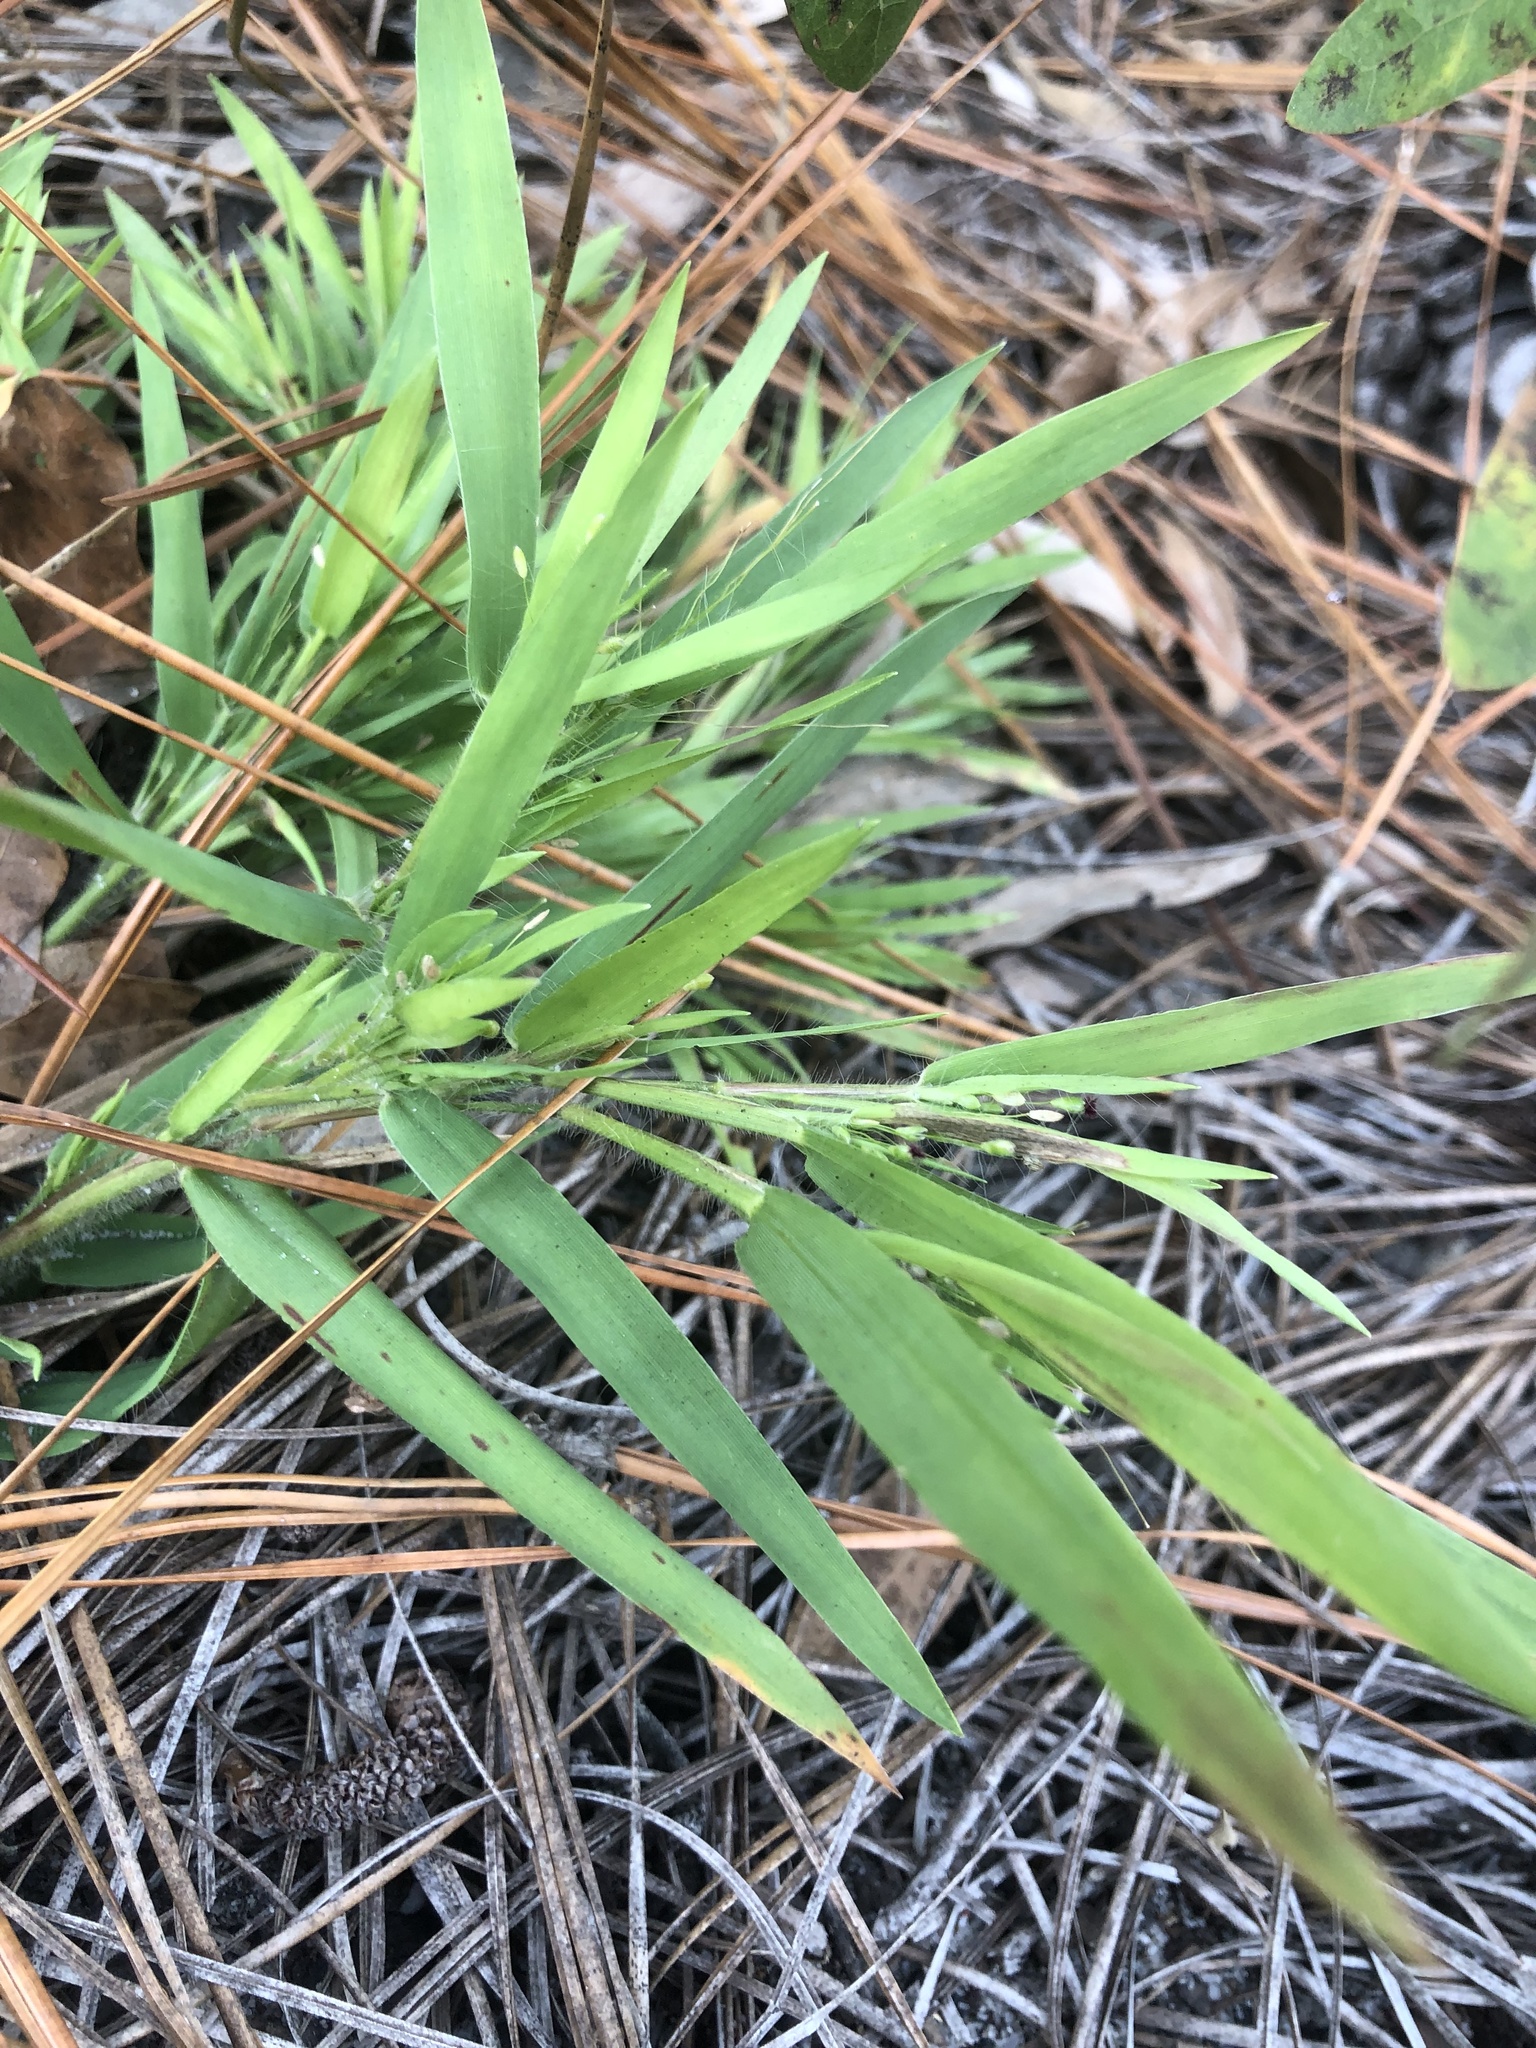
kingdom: Plantae
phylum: Tracheophyta
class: Liliopsida
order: Poales
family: Poaceae
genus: Dichanthelium
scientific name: Dichanthelium oligosanthes
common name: Few-anther obscuregrass
